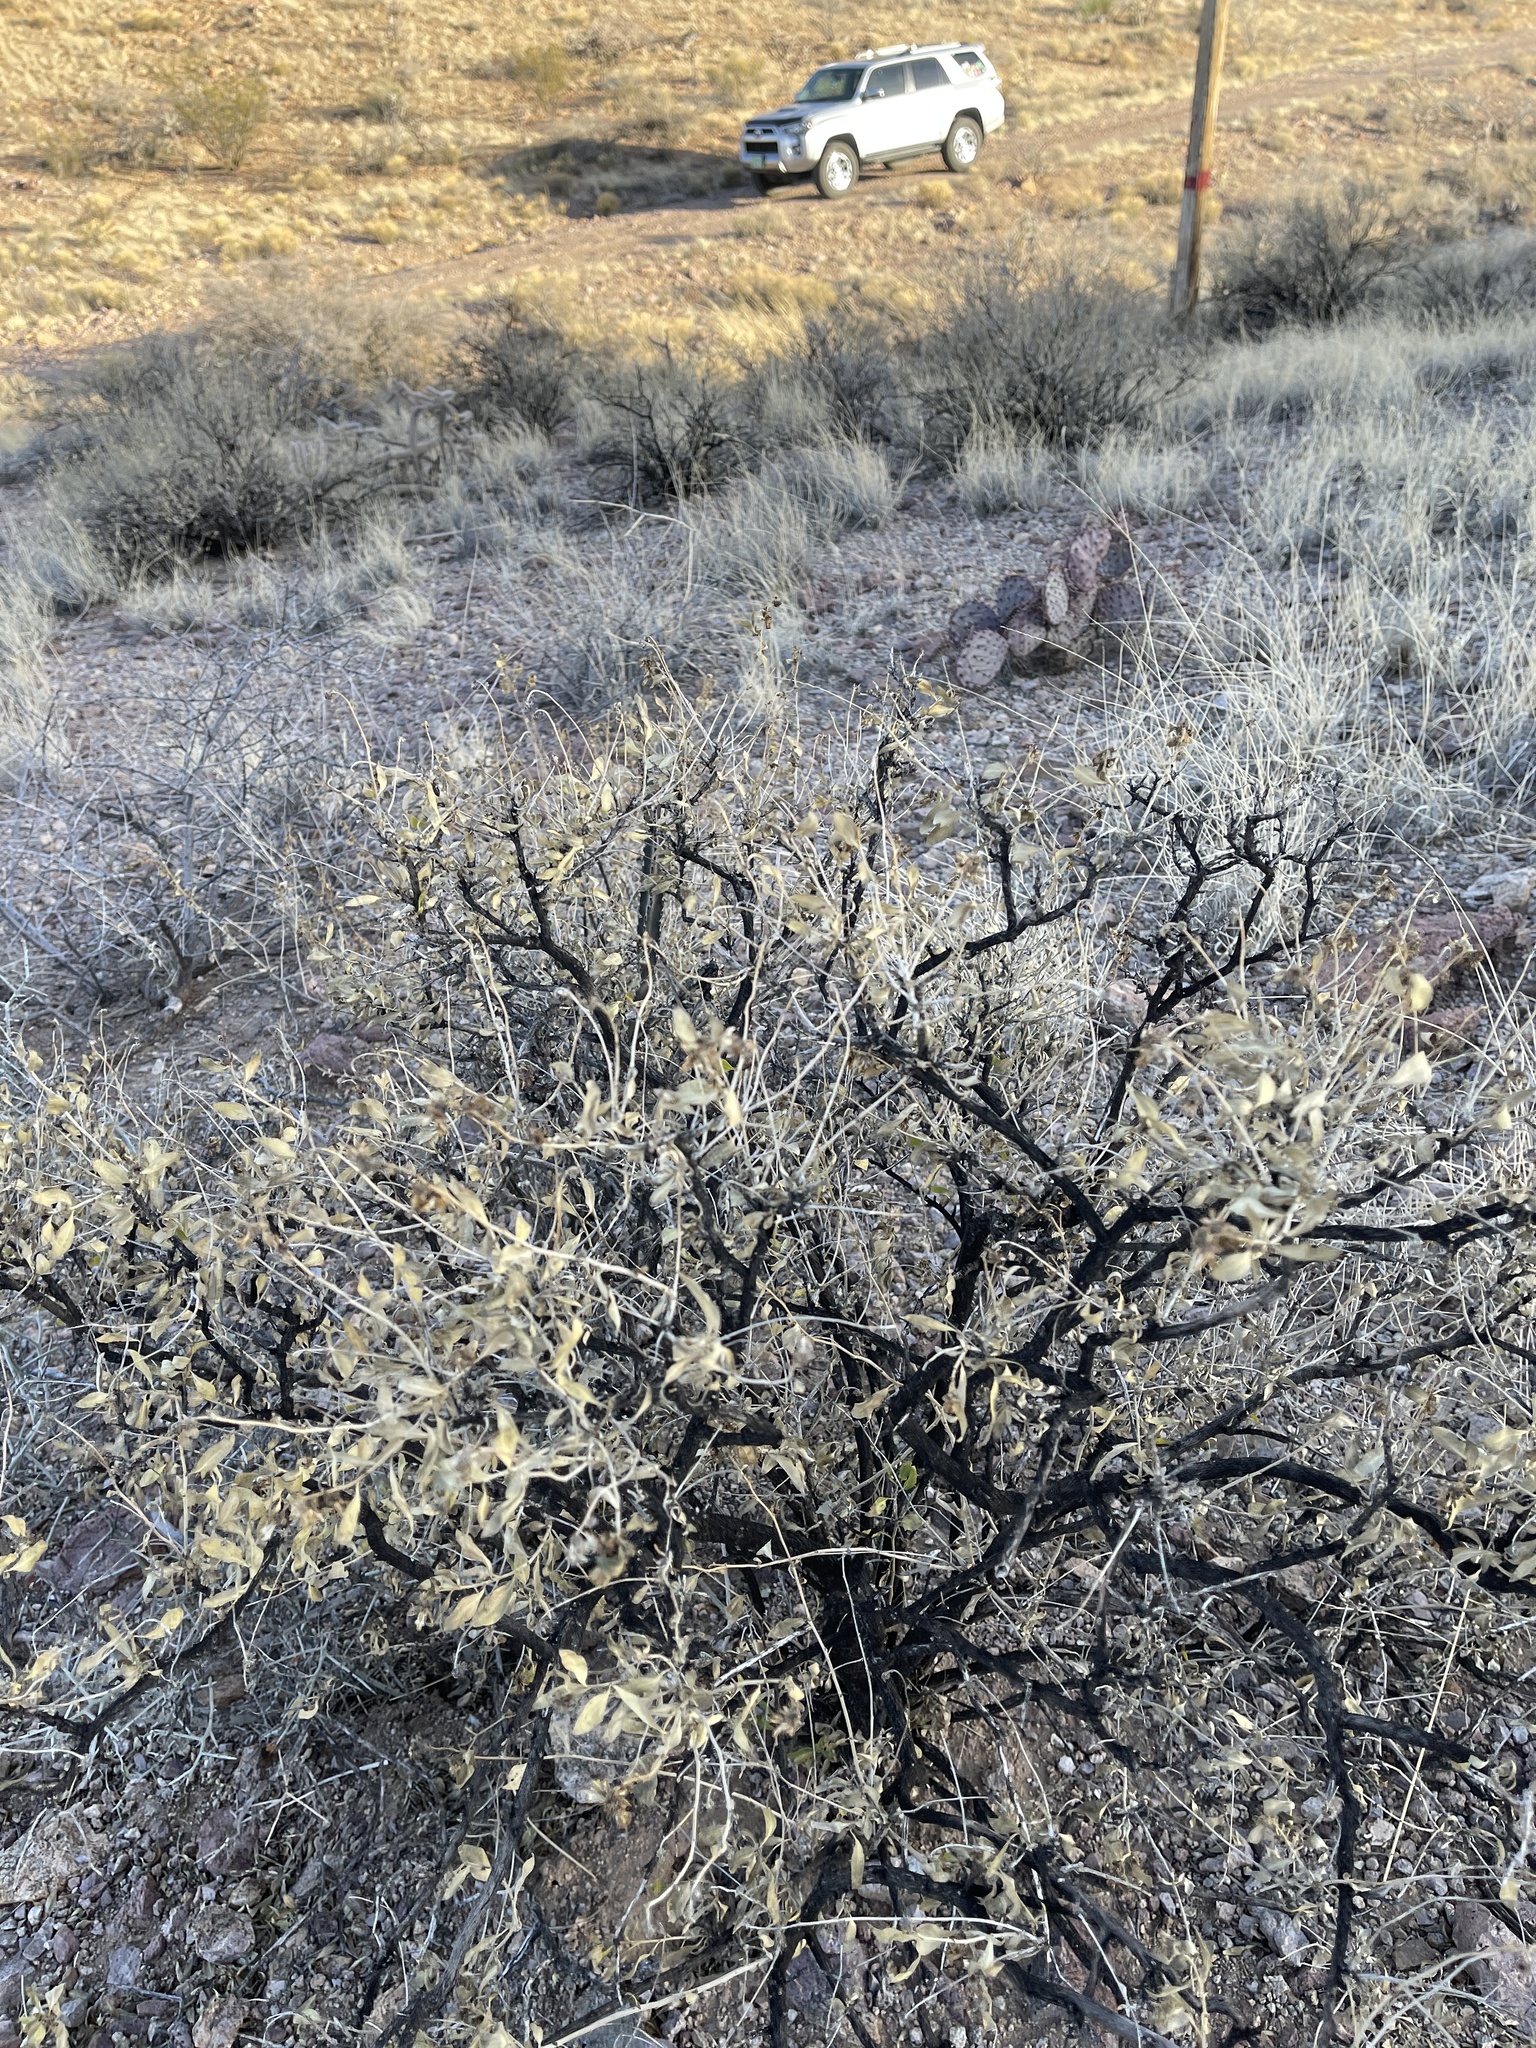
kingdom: Plantae
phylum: Tracheophyta
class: Magnoliopsida
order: Asterales
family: Asteraceae
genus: Flourensia
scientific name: Flourensia cernua
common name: Varnishbush
